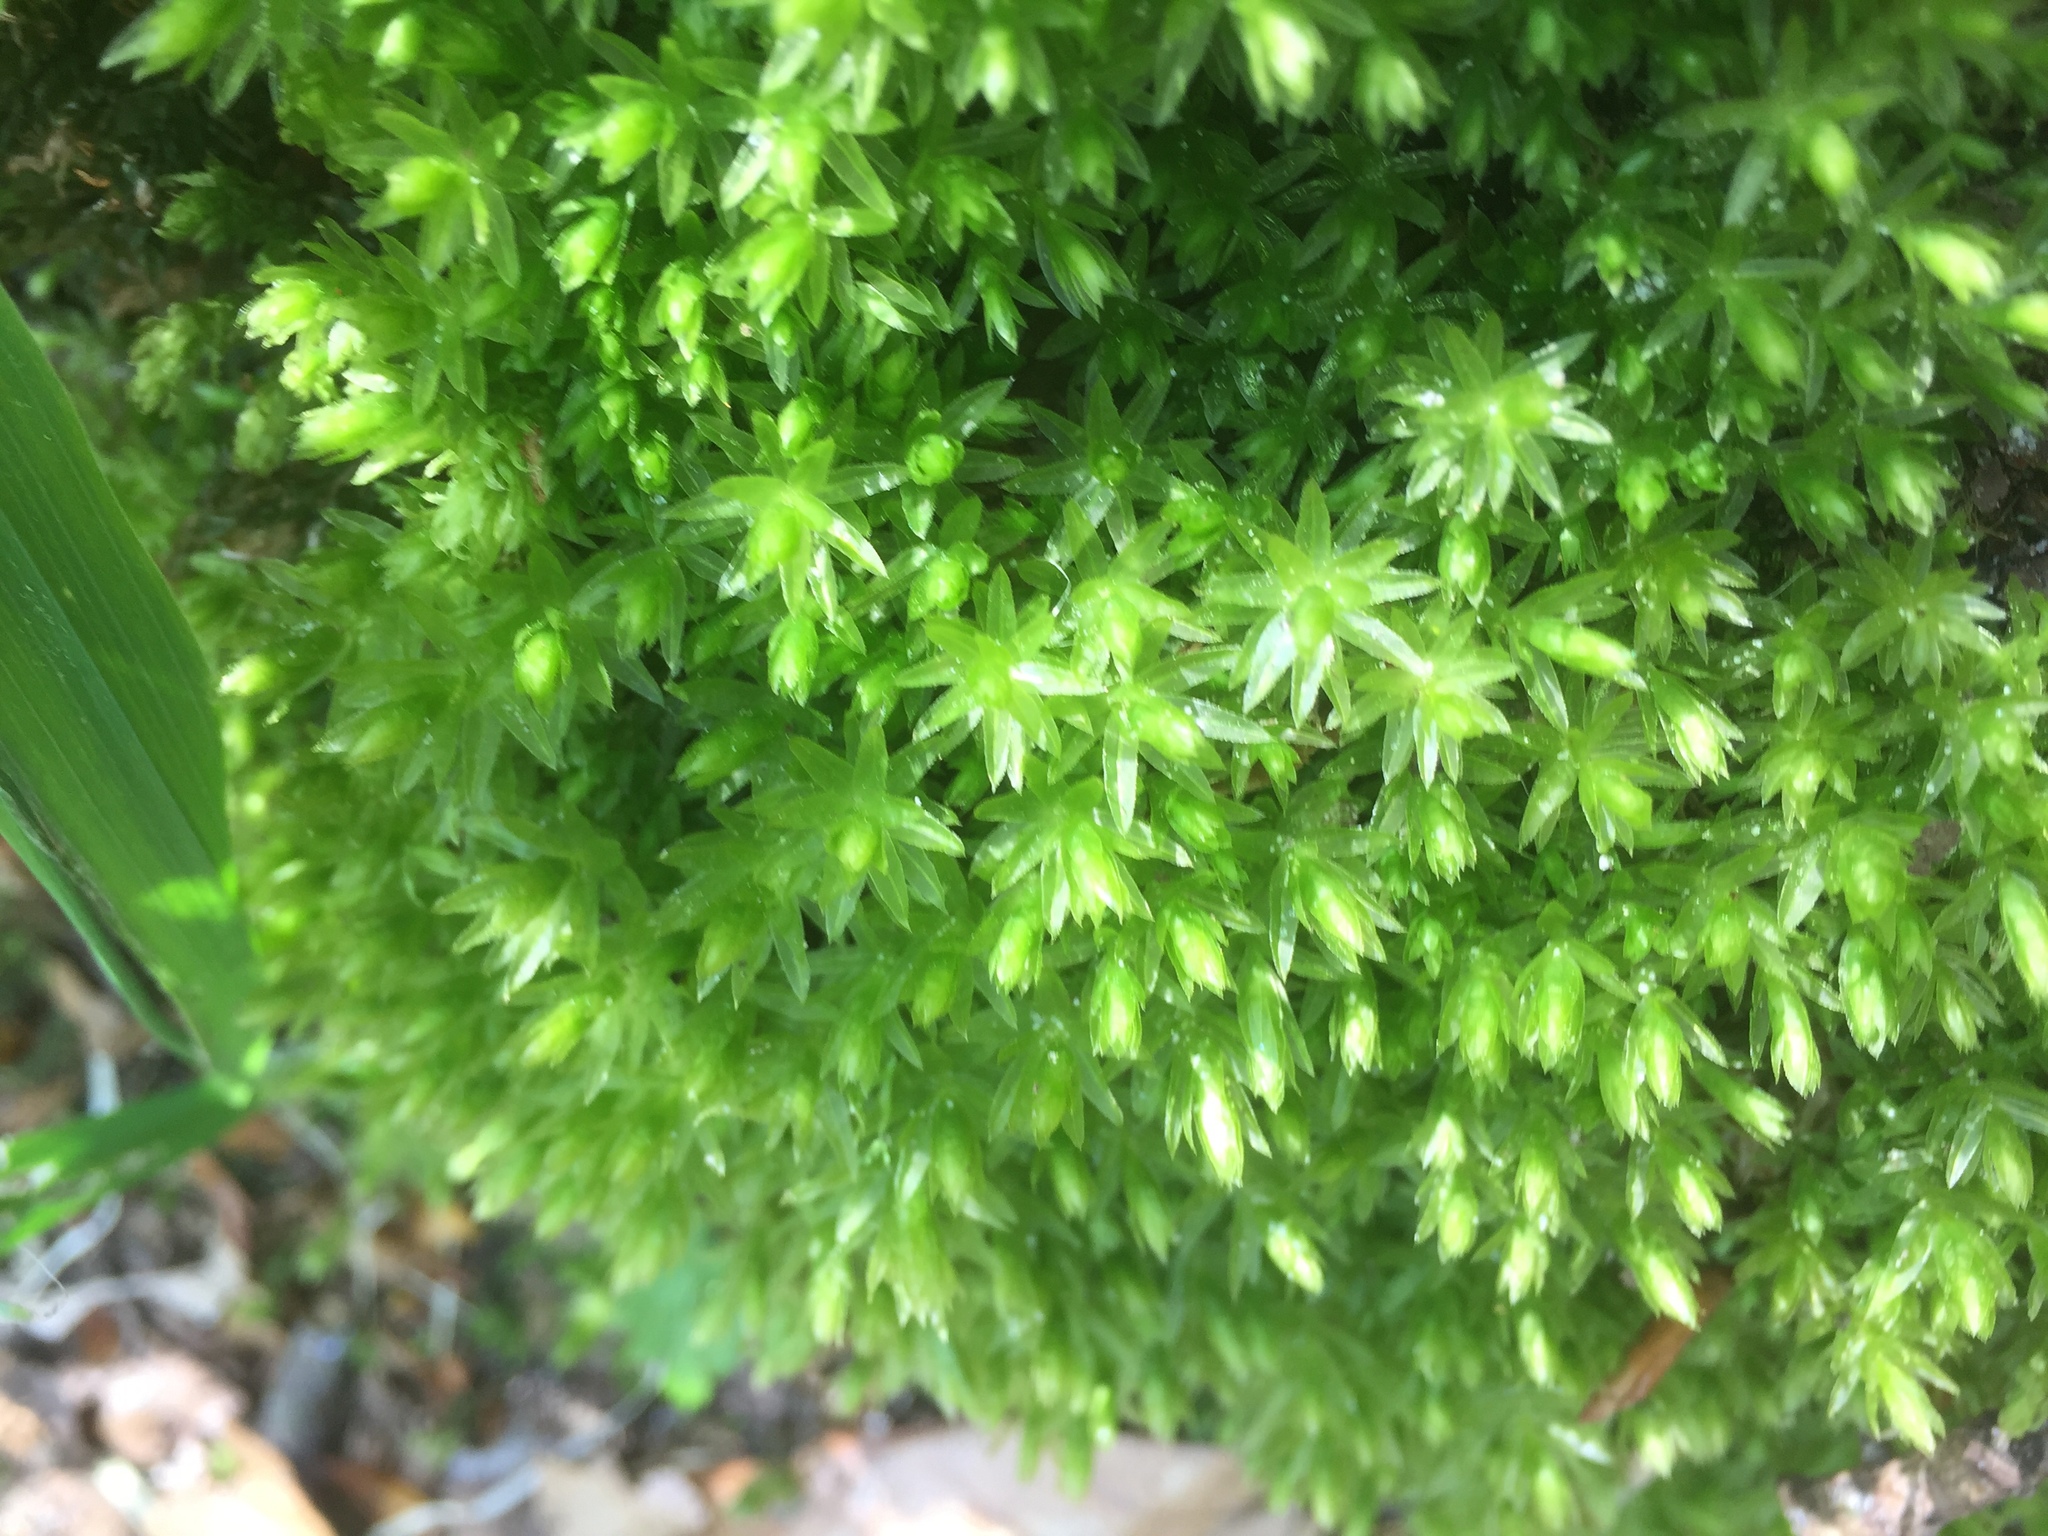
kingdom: Plantae
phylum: Bryophyta
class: Bryopsida
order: Bryales
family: Mniaceae
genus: Mnium
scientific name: Mnium hornum
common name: Swan's-neck leafy moss
